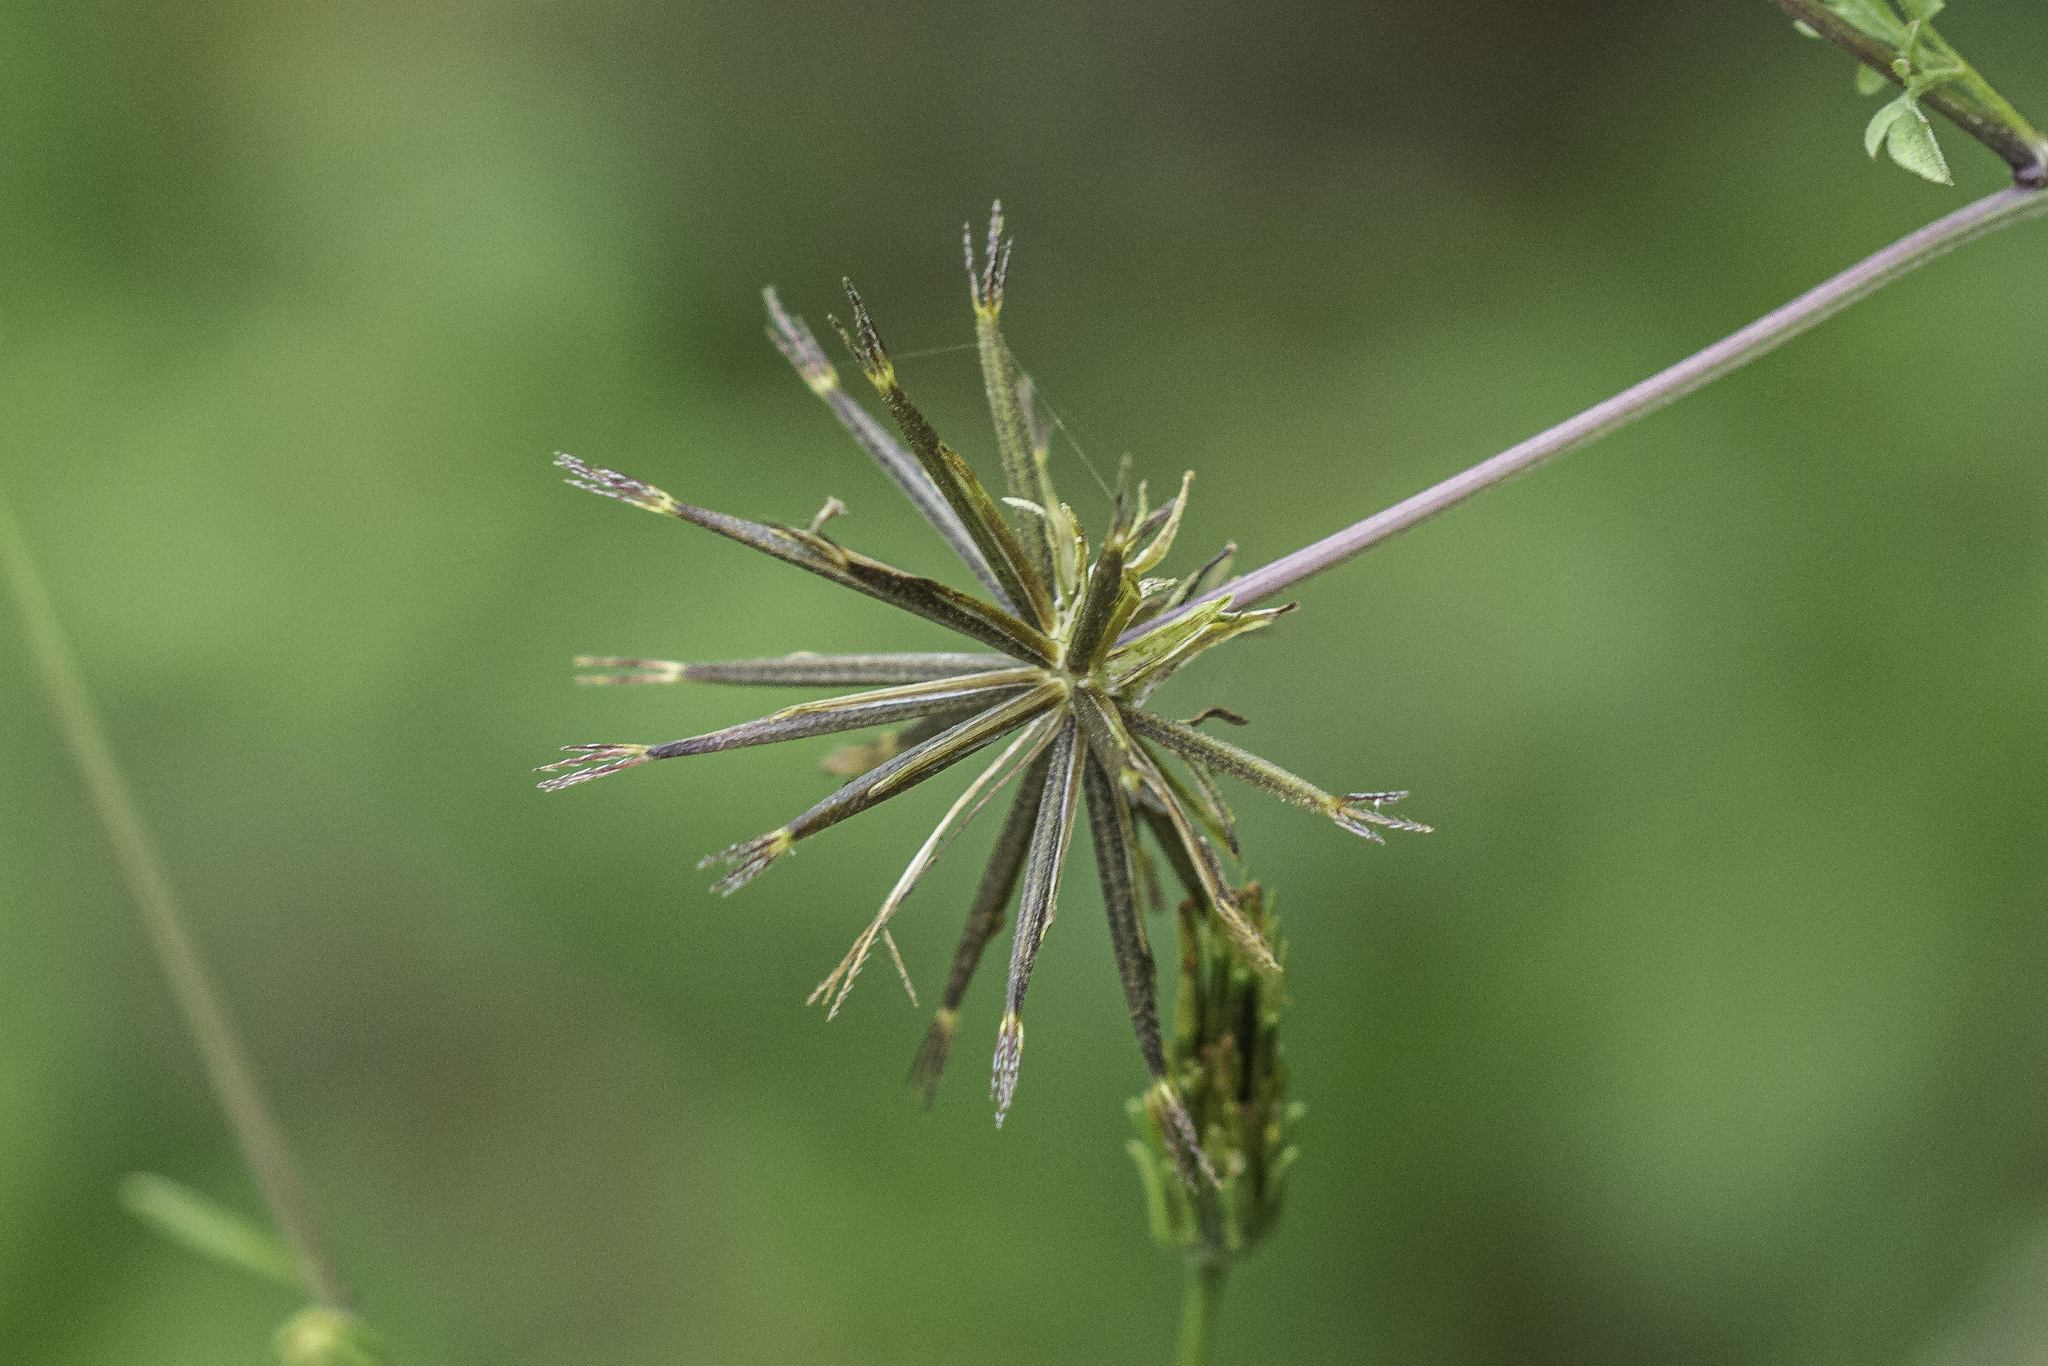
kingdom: Plantae
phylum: Tracheophyta
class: Magnoliopsida
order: Asterales
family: Asteraceae
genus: Bidens
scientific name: Bidens bipinnata
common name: Spanish-needles
